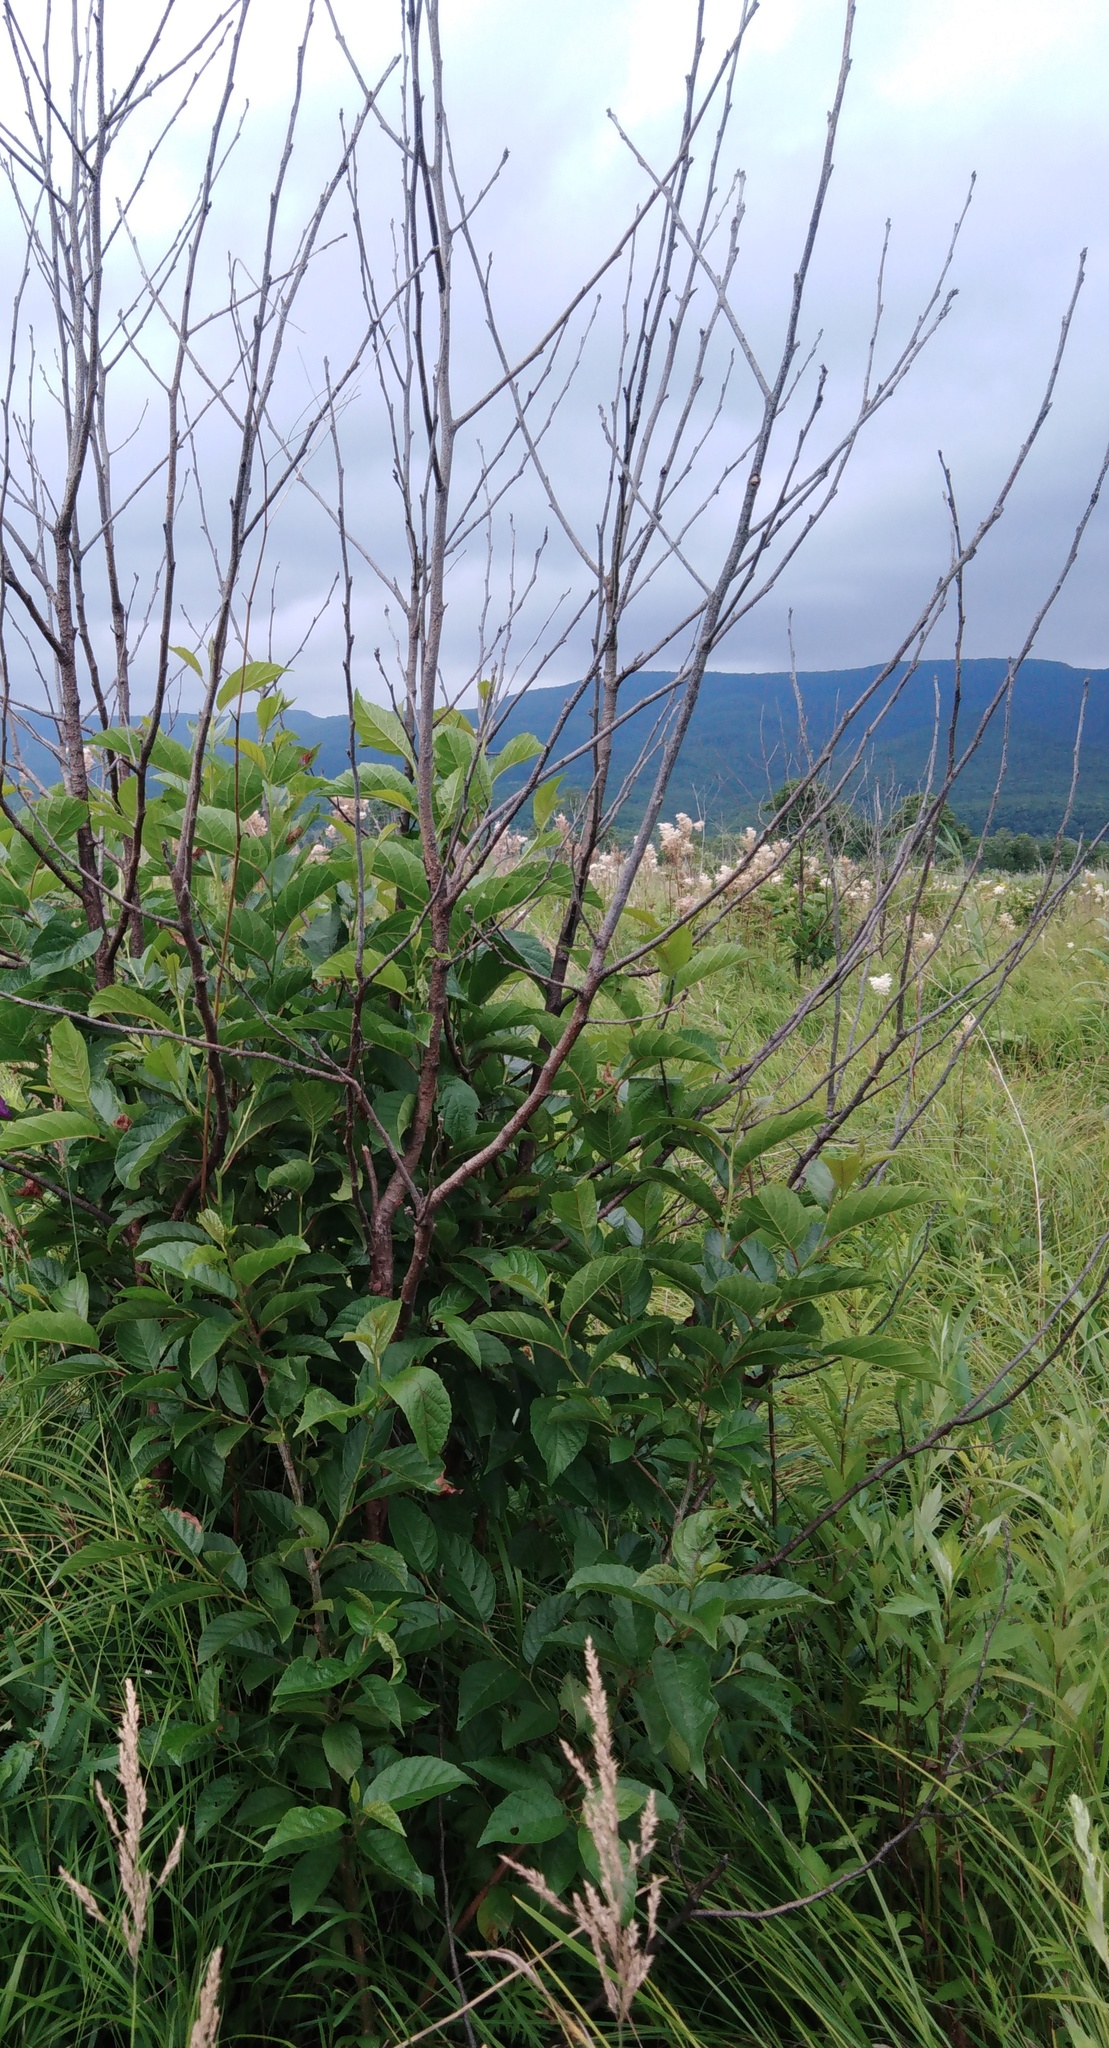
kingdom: Plantae
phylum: Tracheophyta
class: Magnoliopsida
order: Fagales
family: Betulaceae
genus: Alnus
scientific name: Alnus japonica
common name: Japanese alder
